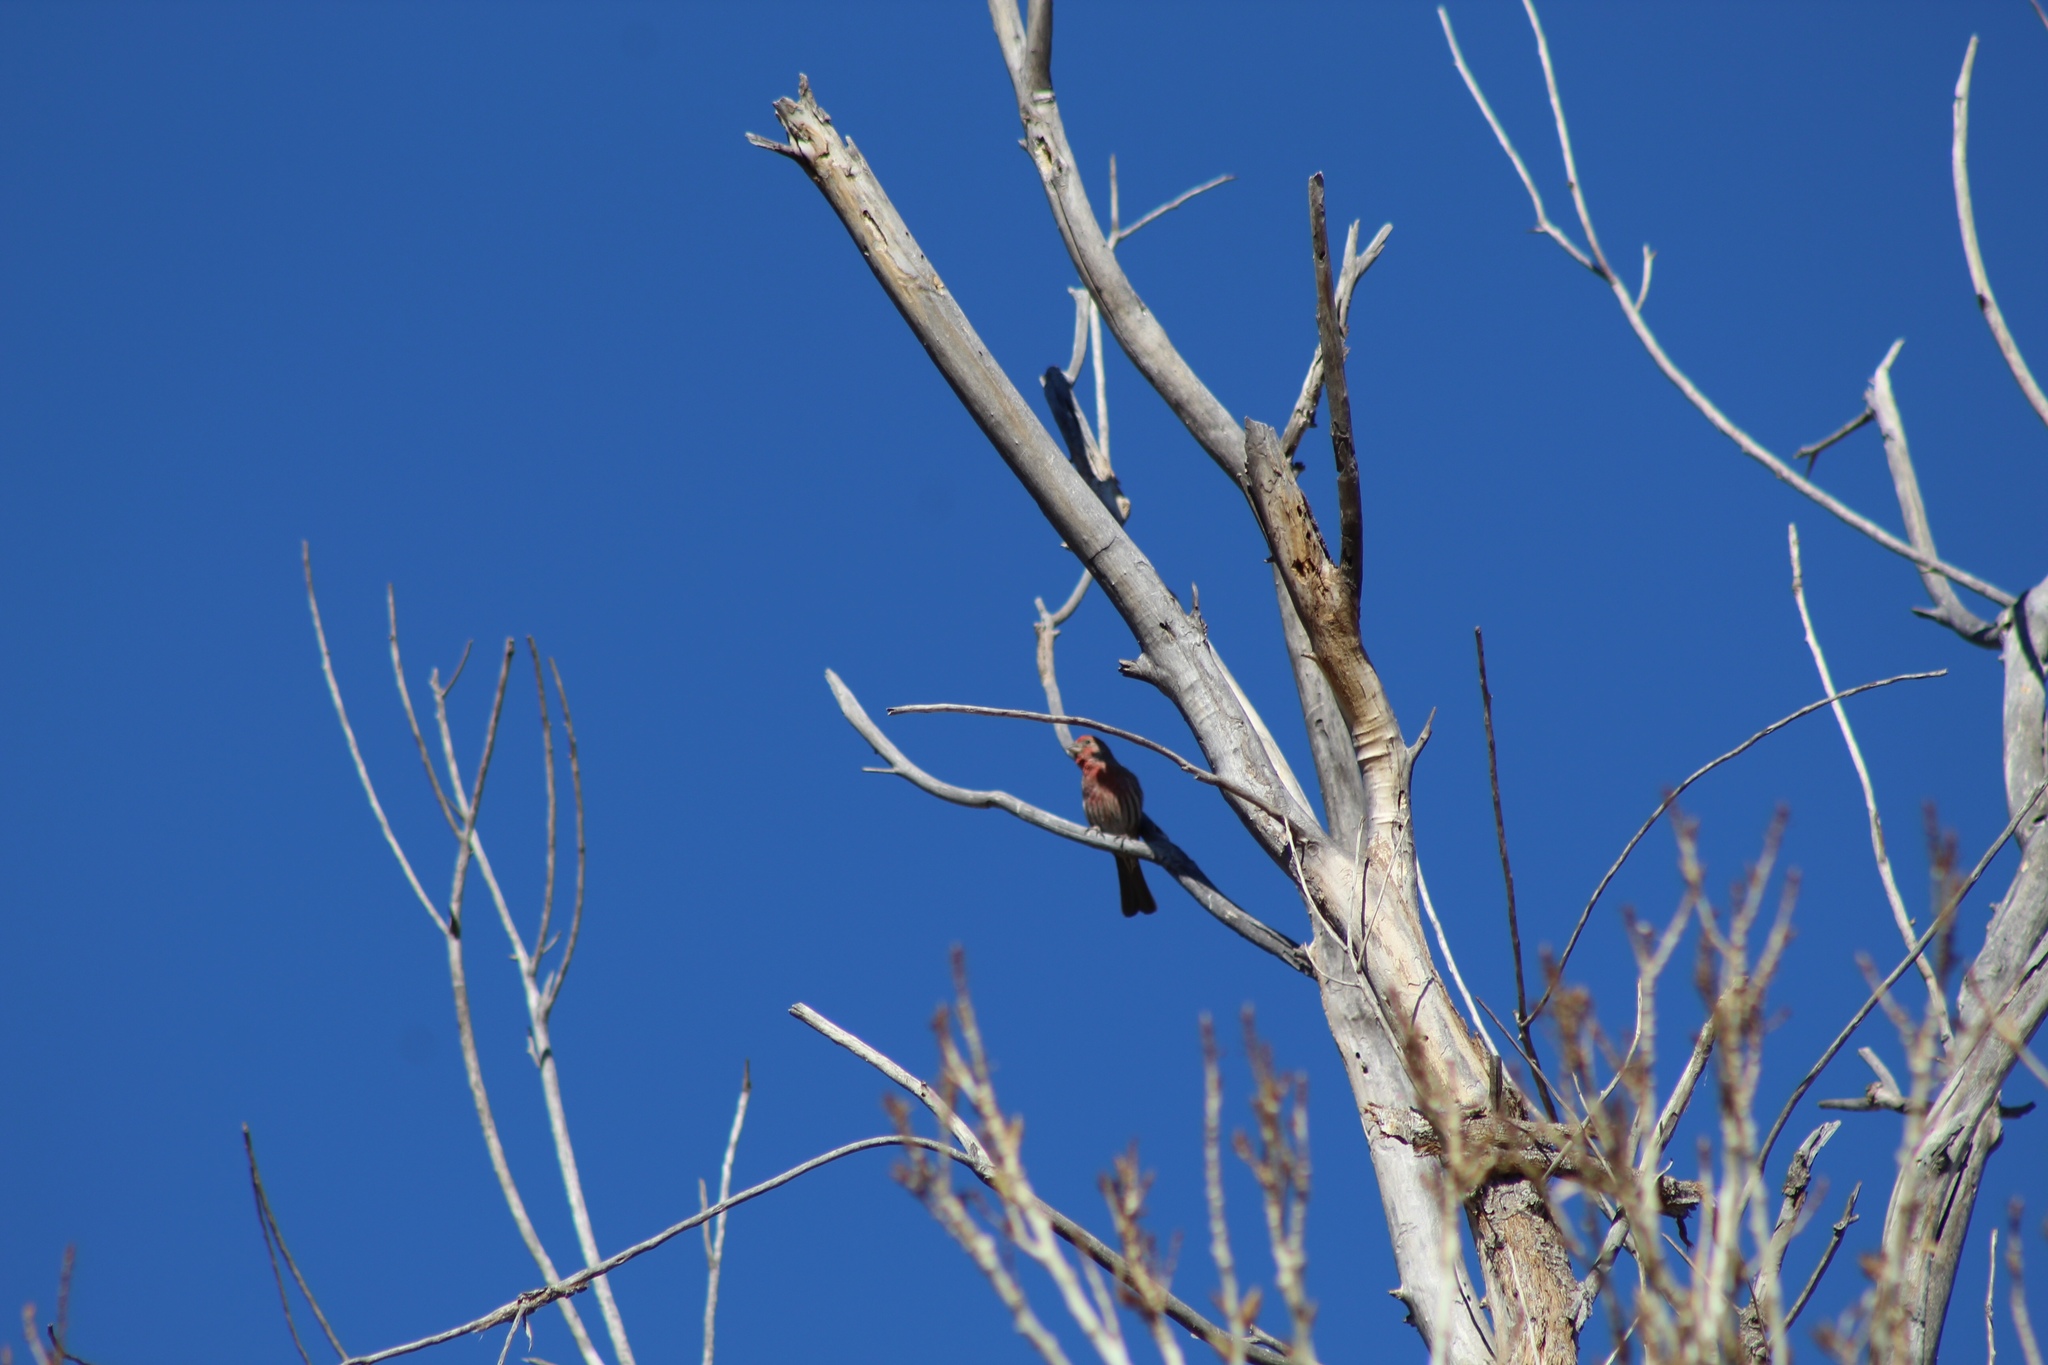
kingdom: Animalia
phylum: Chordata
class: Aves
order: Passeriformes
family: Fringillidae
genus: Haemorhous
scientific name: Haemorhous mexicanus
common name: House finch
